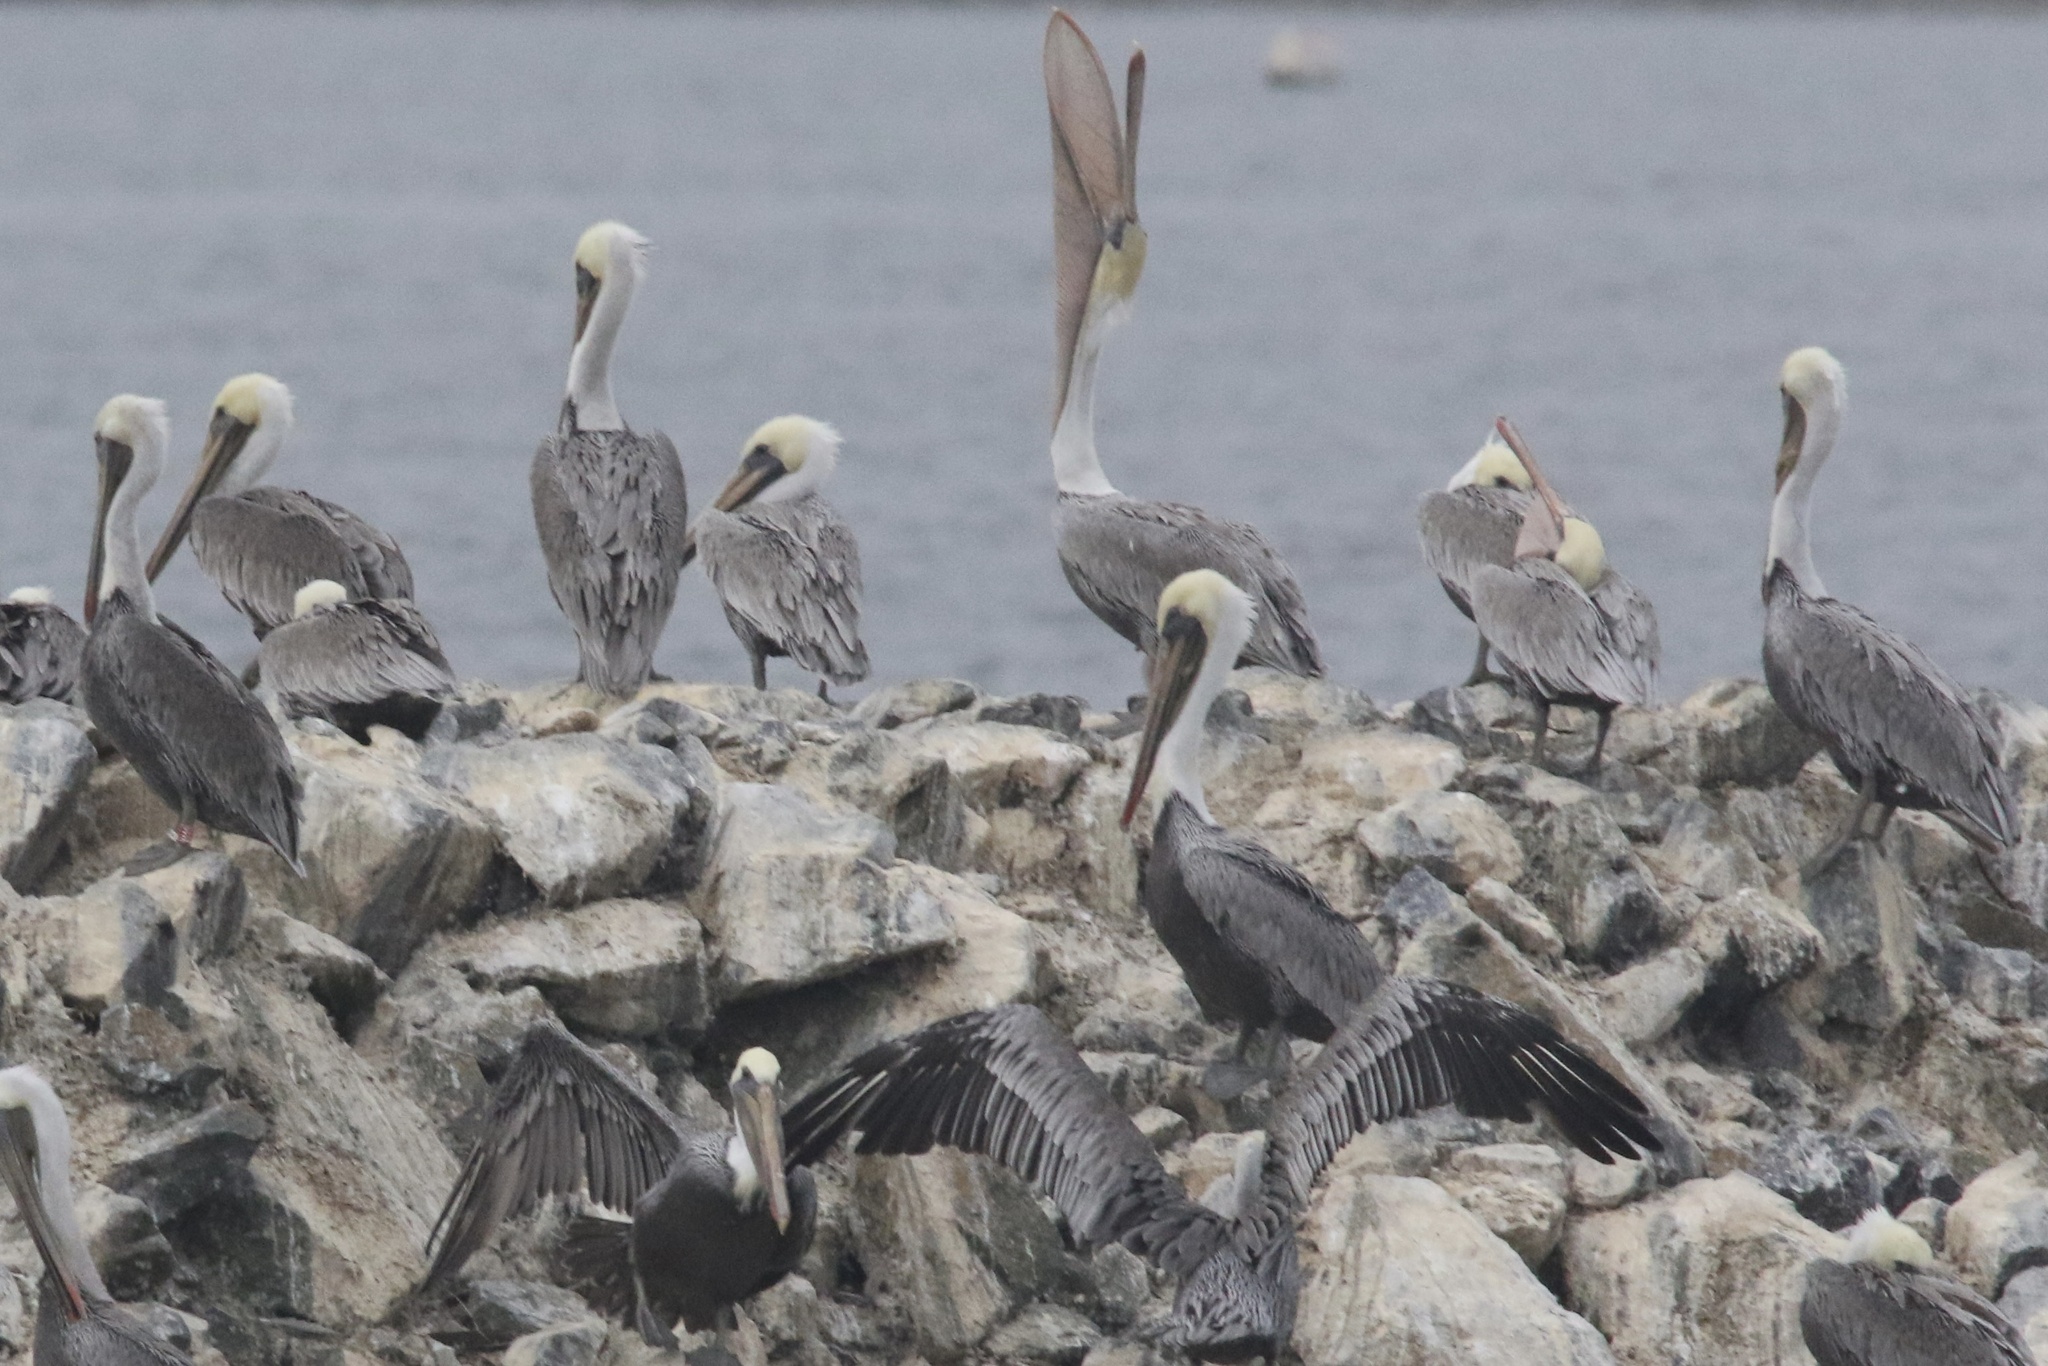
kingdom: Animalia
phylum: Chordata
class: Aves
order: Pelecaniformes
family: Pelecanidae
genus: Pelecanus
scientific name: Pelecanus occidentalis
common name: Brown pelican
